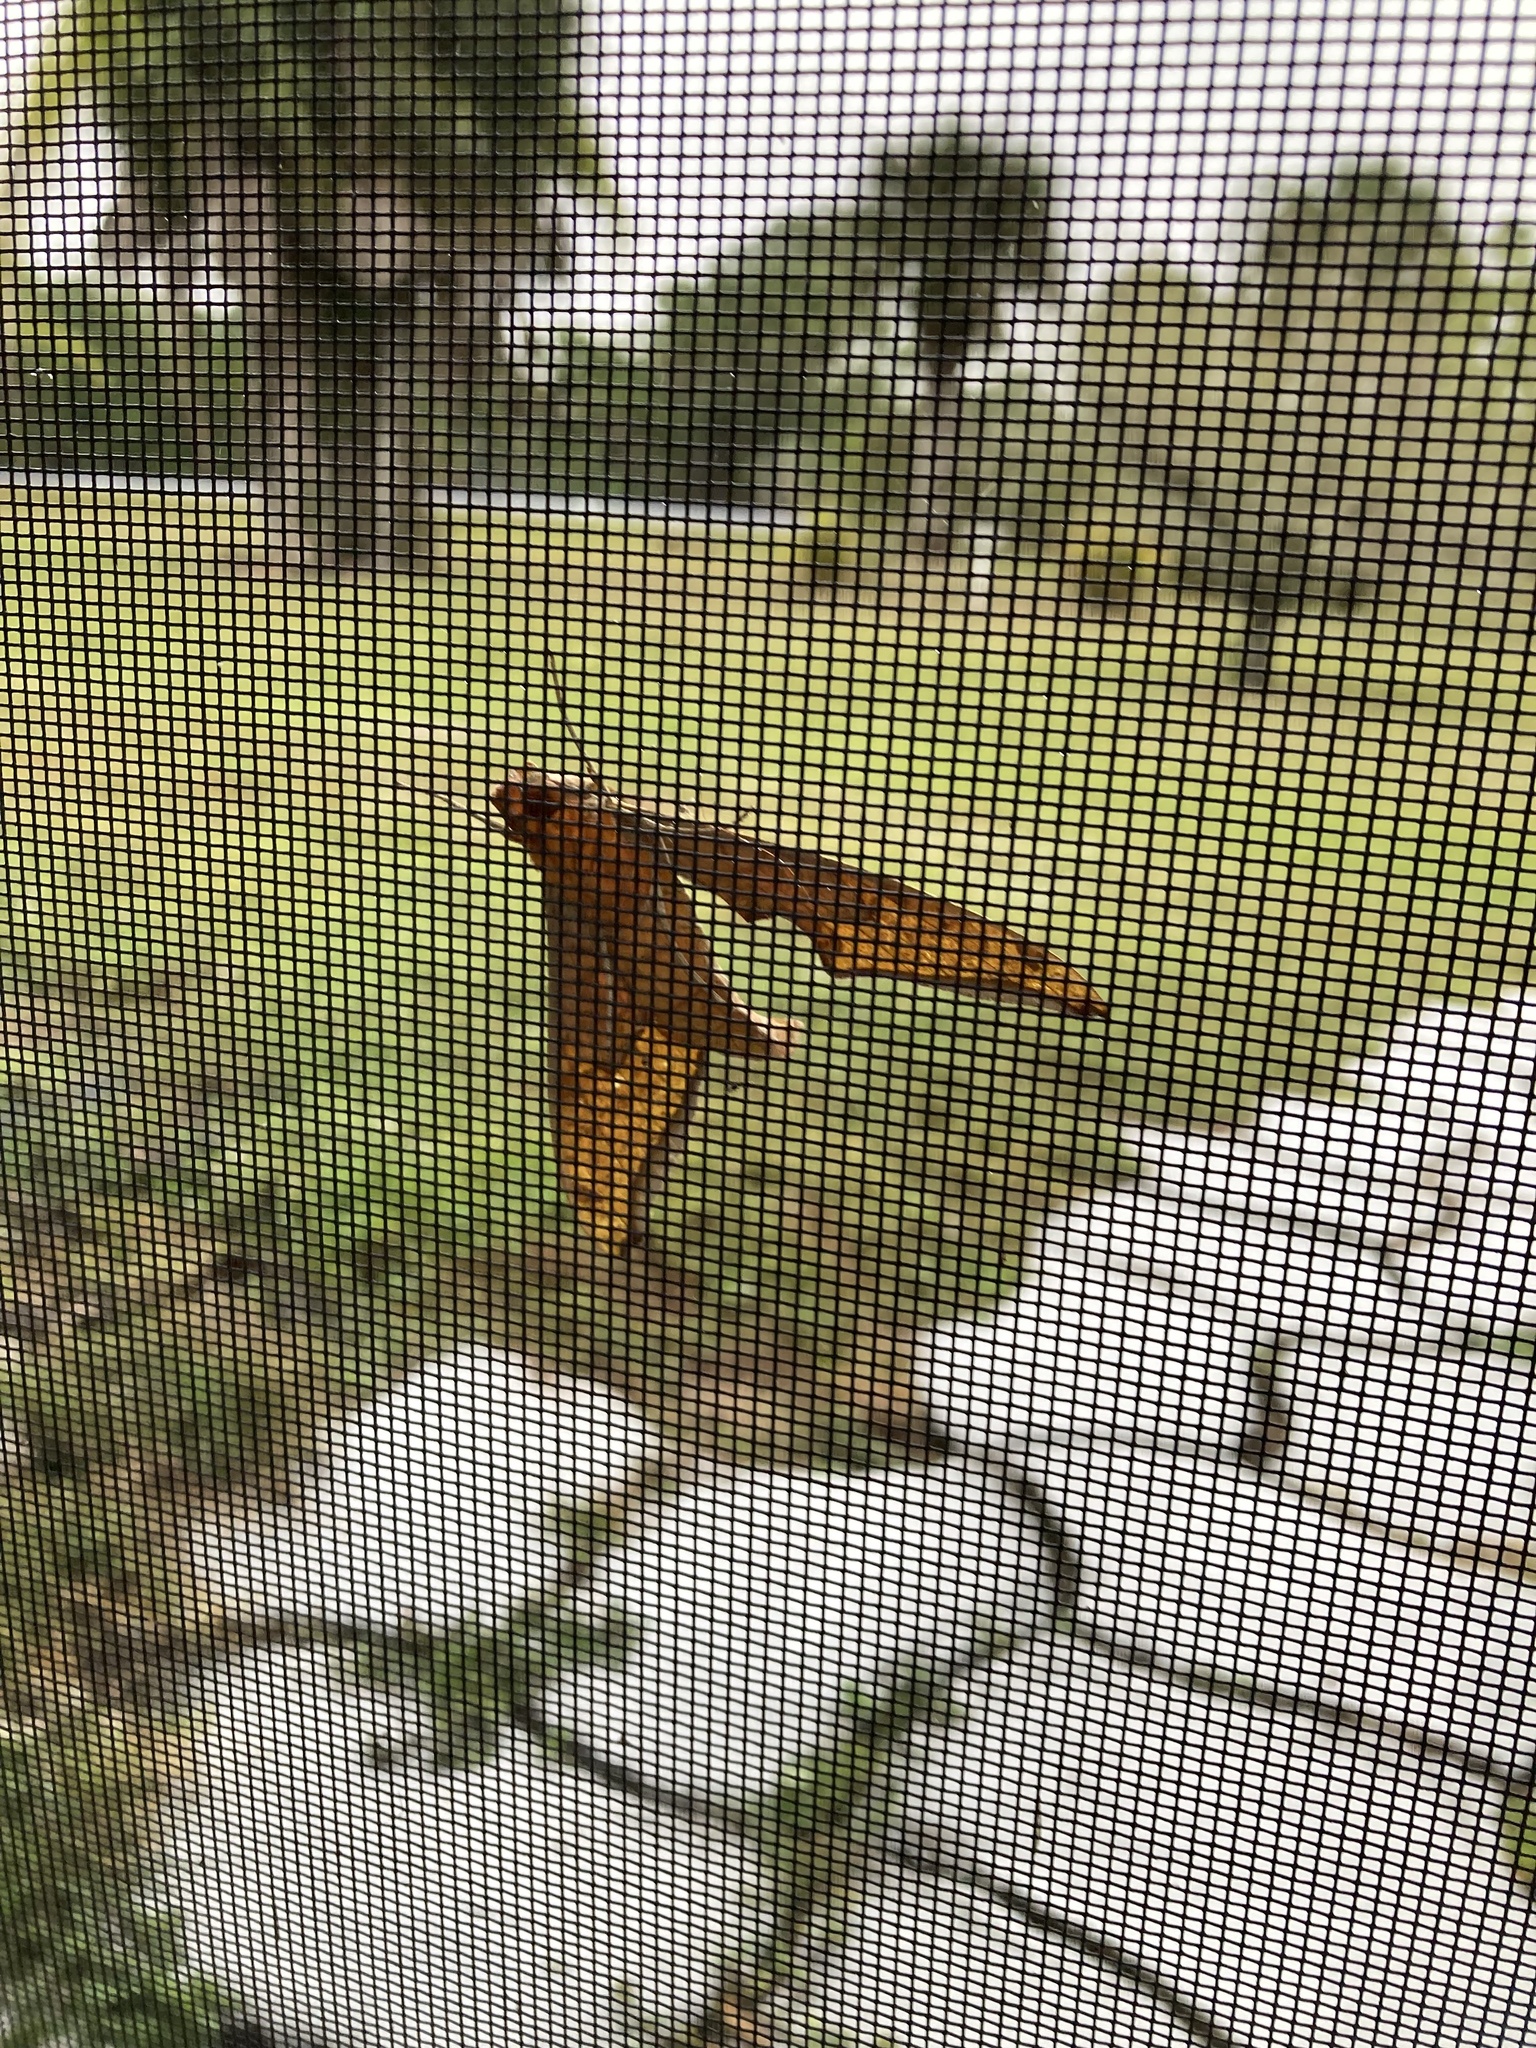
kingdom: Animalia
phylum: Arthropoda
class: Insecta
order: Lepidoptera
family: Sphingidae
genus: Protambulyx
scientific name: Protambulyx strigilis
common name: Streaked sphinx
